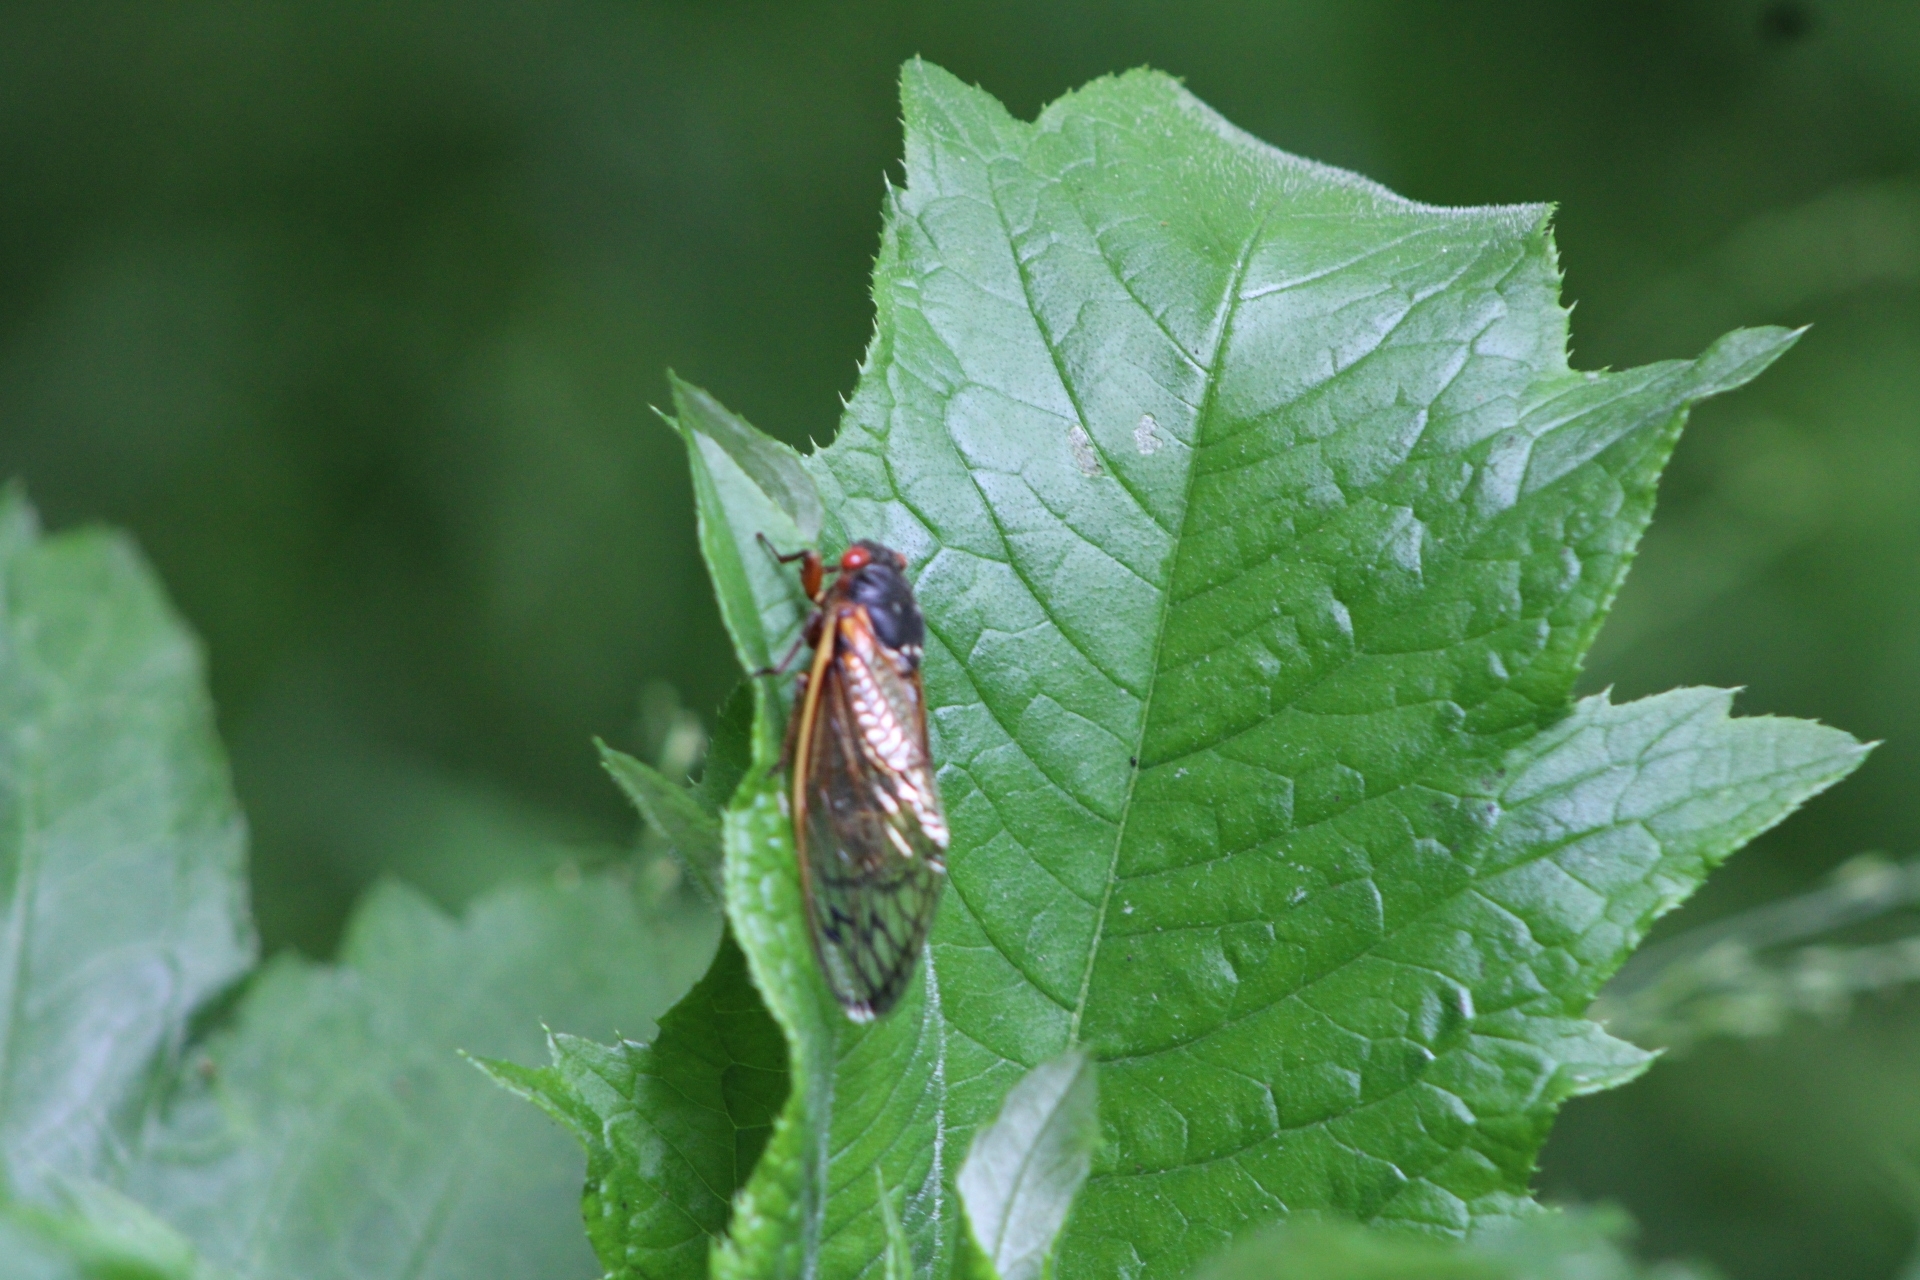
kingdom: Animalia
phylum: Arthropoda
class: Insecta
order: Hemiptera
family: Cicadidae
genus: Magicicada
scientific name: Magicicada septendecim
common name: Periodical cicada
